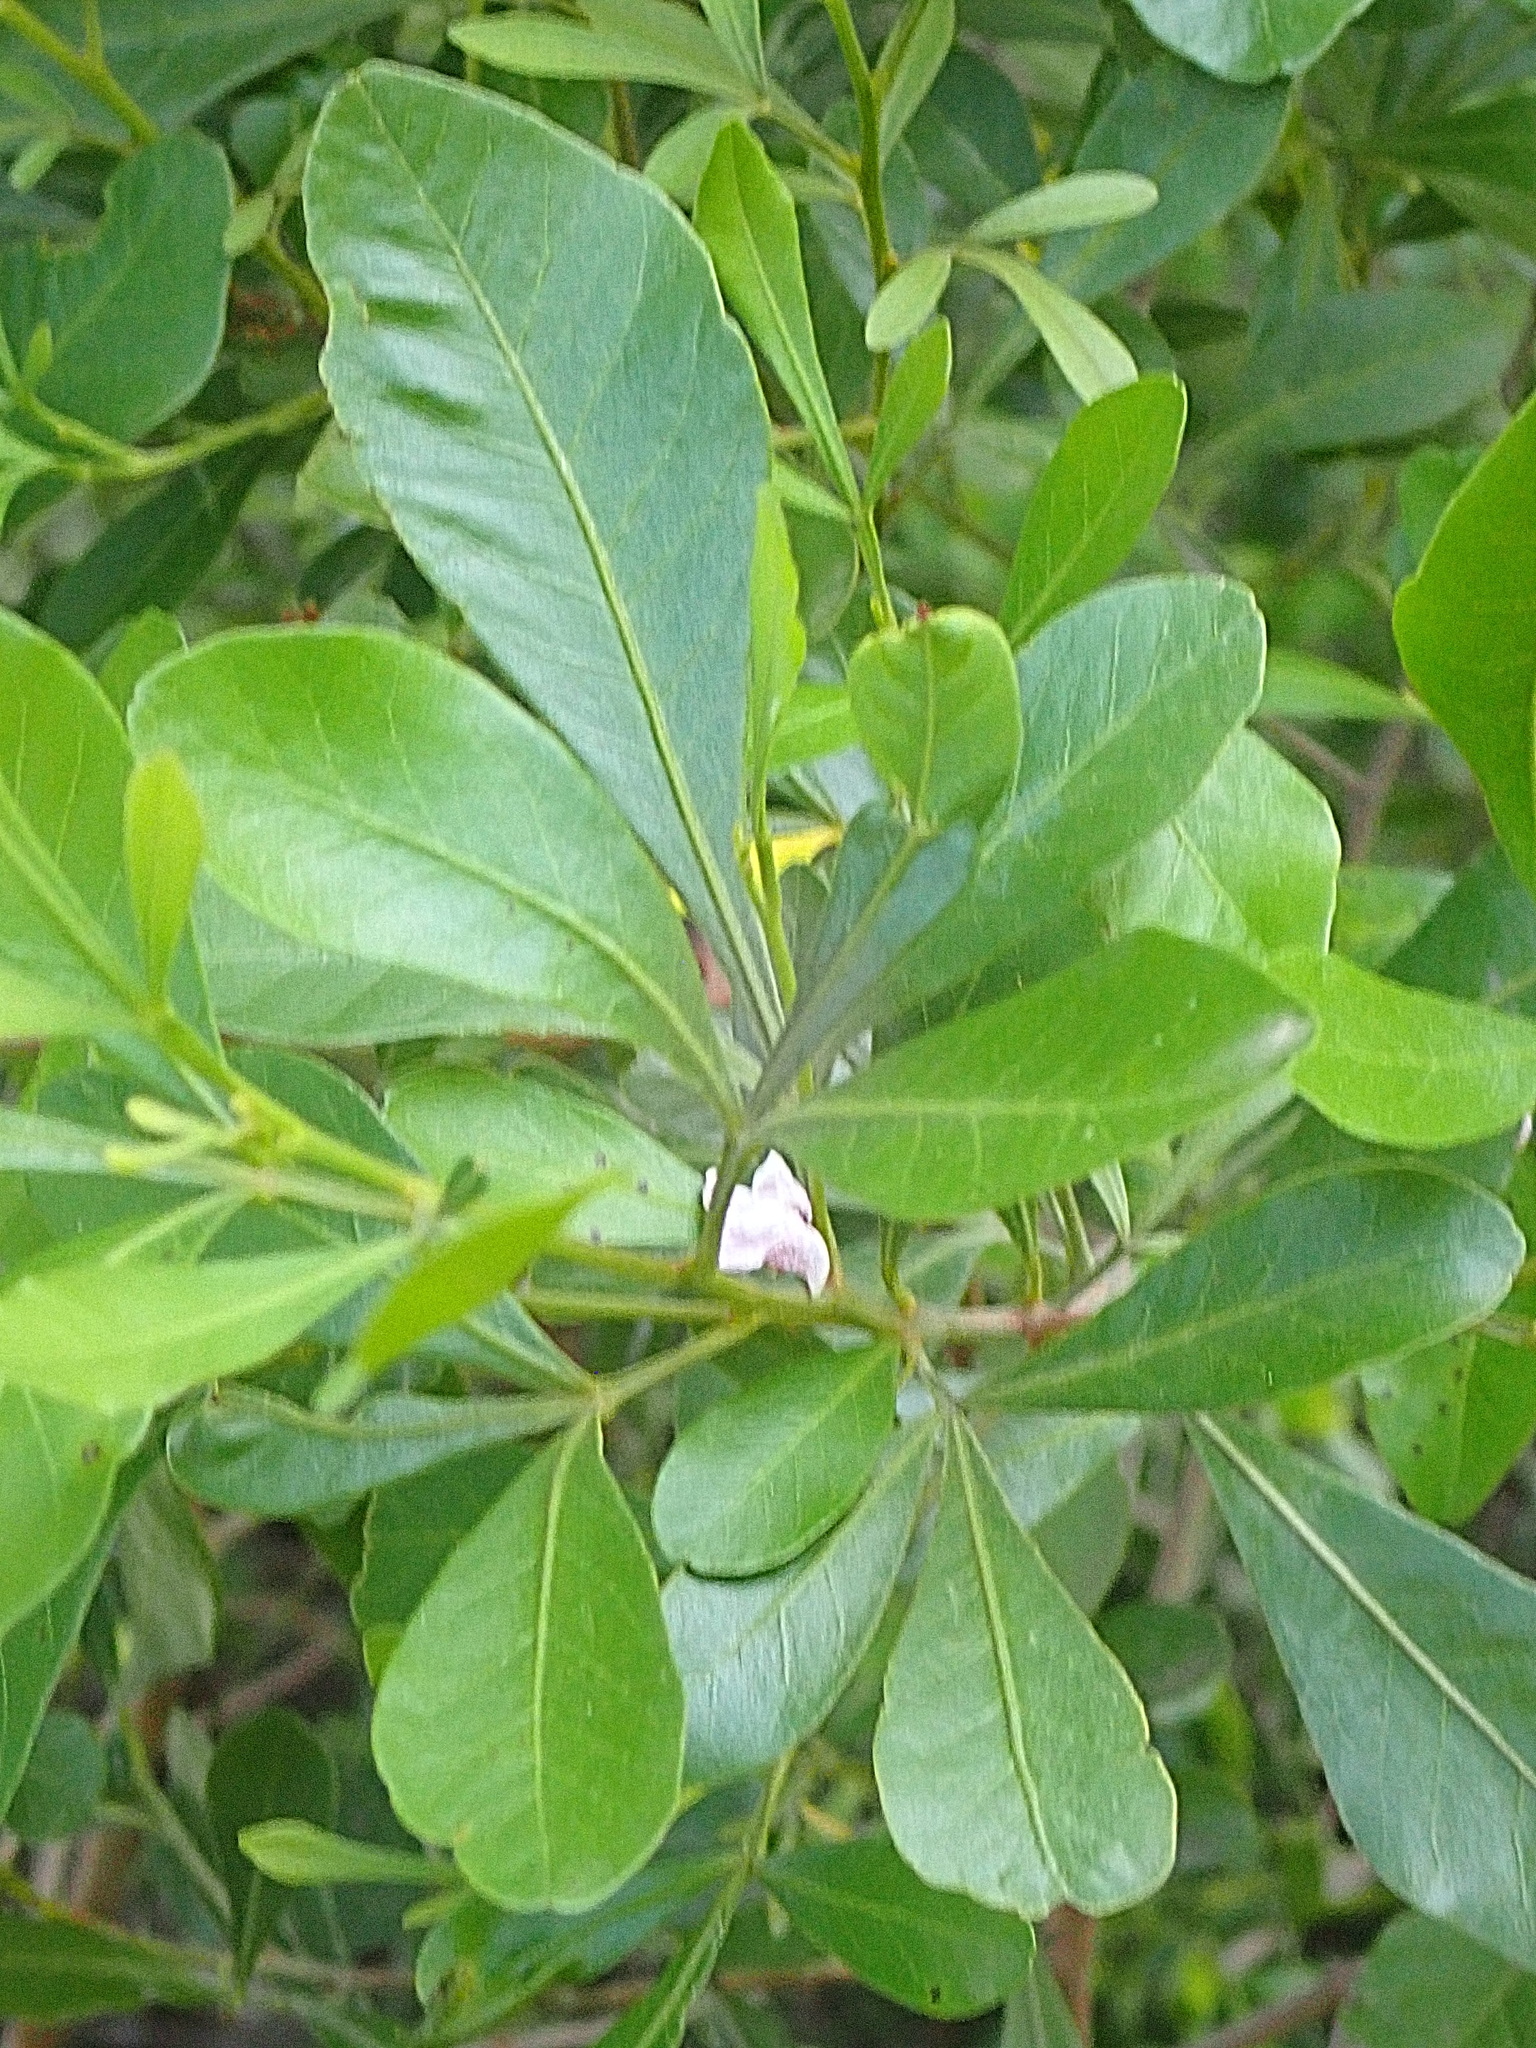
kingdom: Plantae
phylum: Tracheophyta
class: Magnoliopsida
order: Sapindales
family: Anacardiaceae
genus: Searsia
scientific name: Searsia lucida
